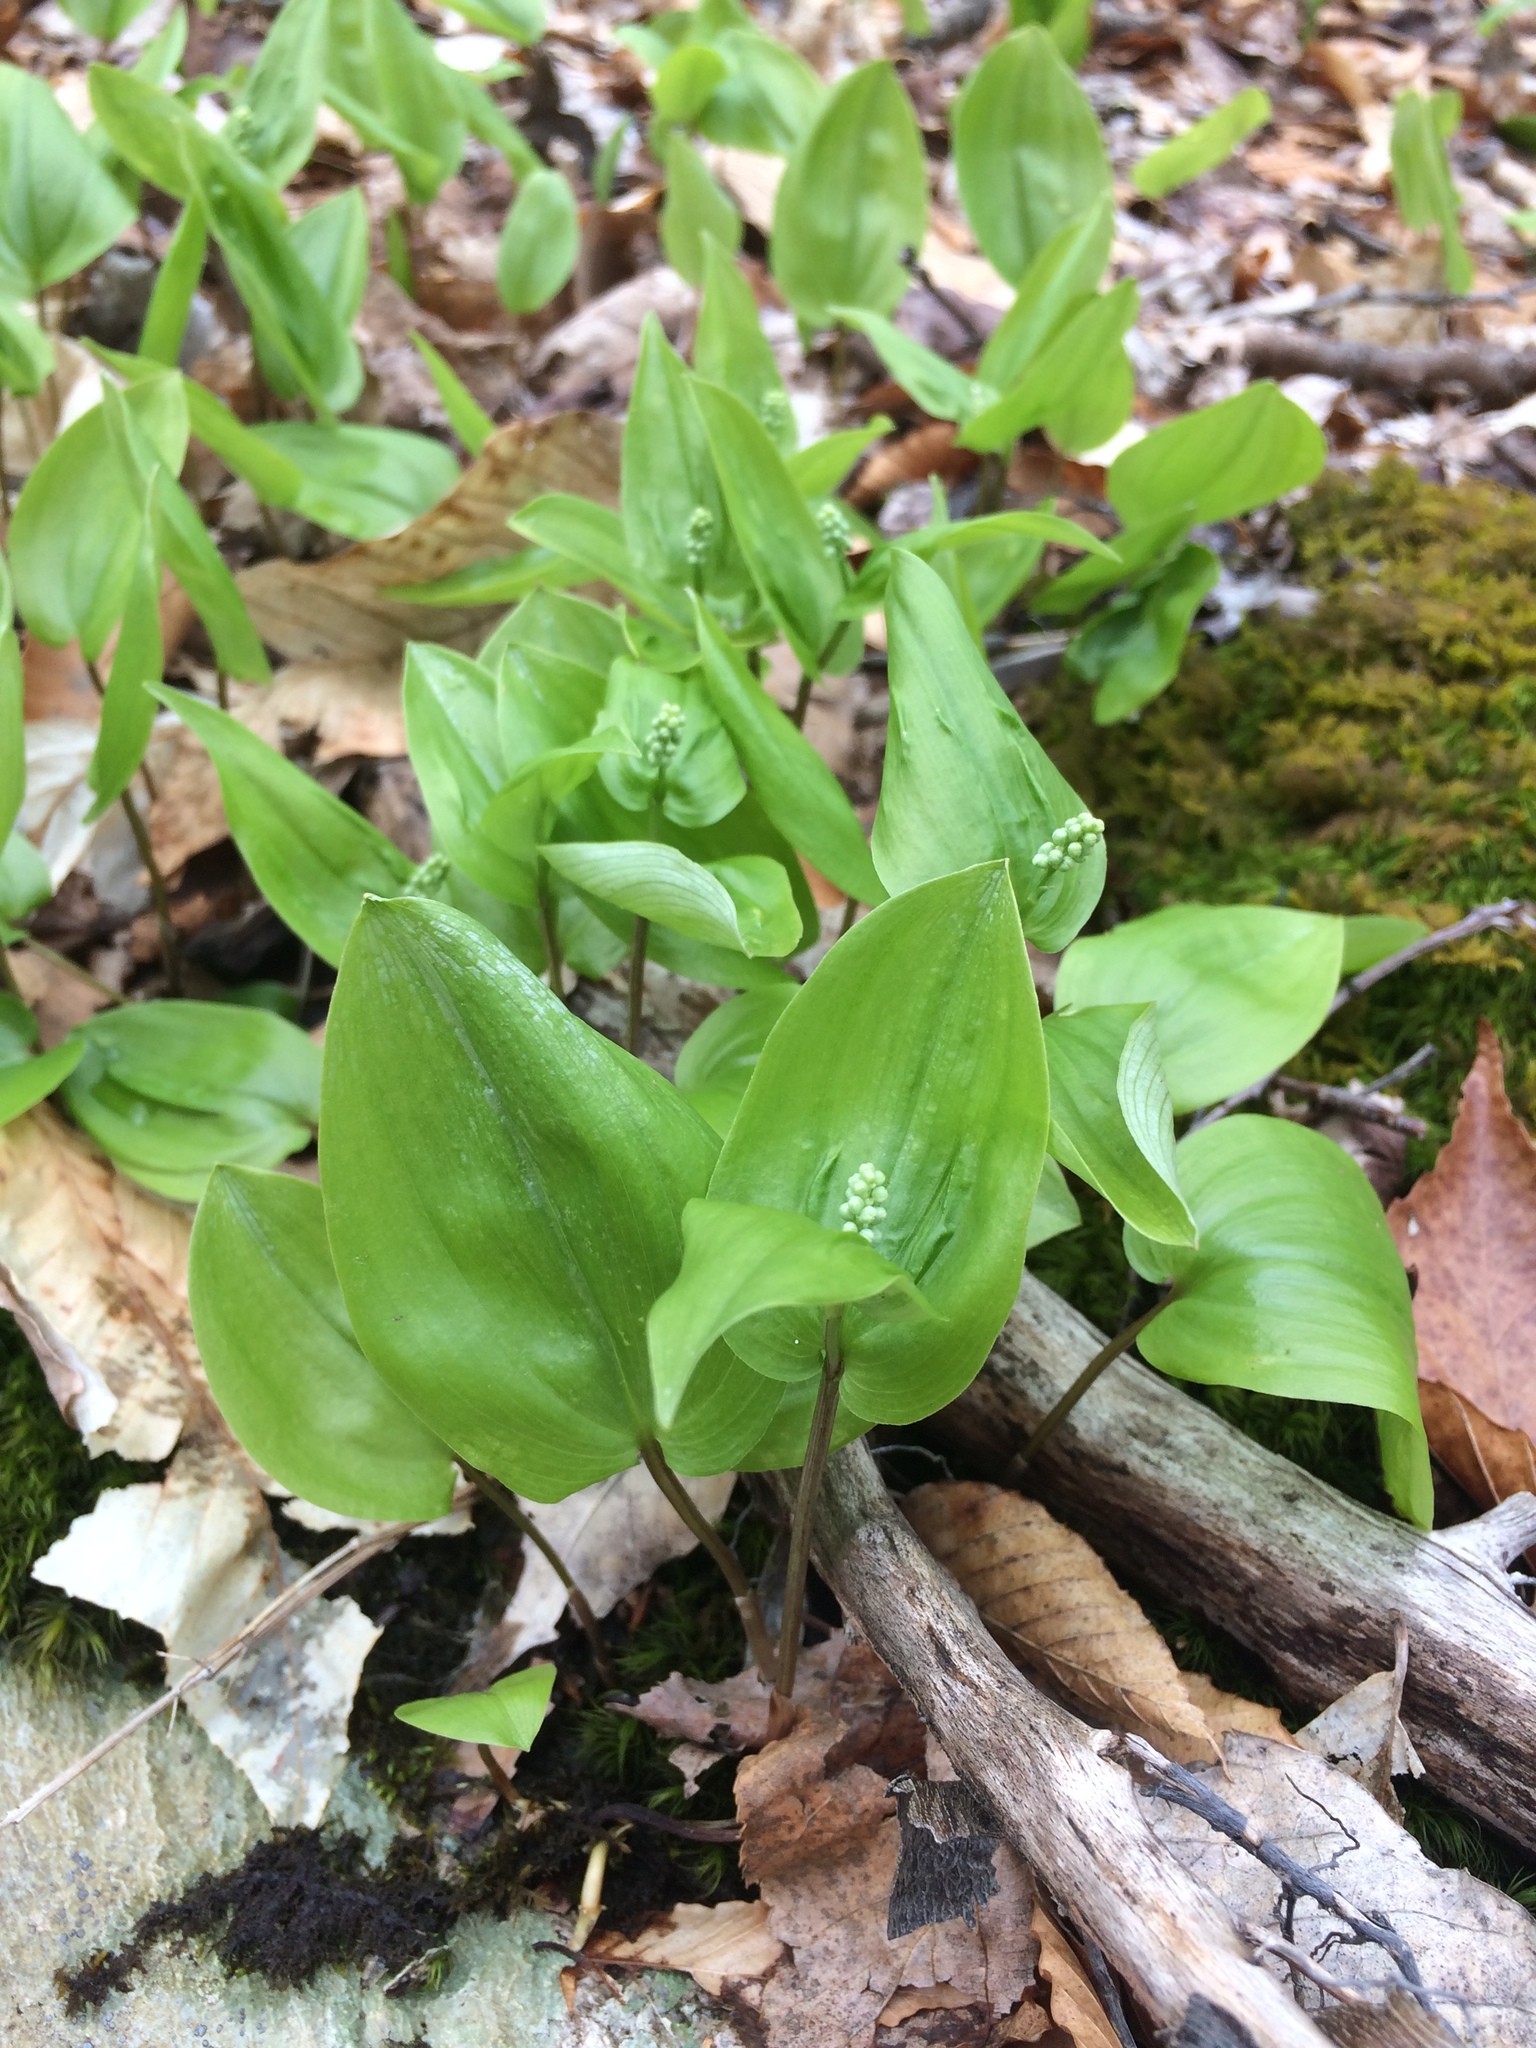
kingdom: Plantae
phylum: Tracheophyta
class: Liliopsida
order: Asparagales
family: Asparagaceae
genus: Maianthemum
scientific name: Maianthemum canadense
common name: False lily-of-the-valley
